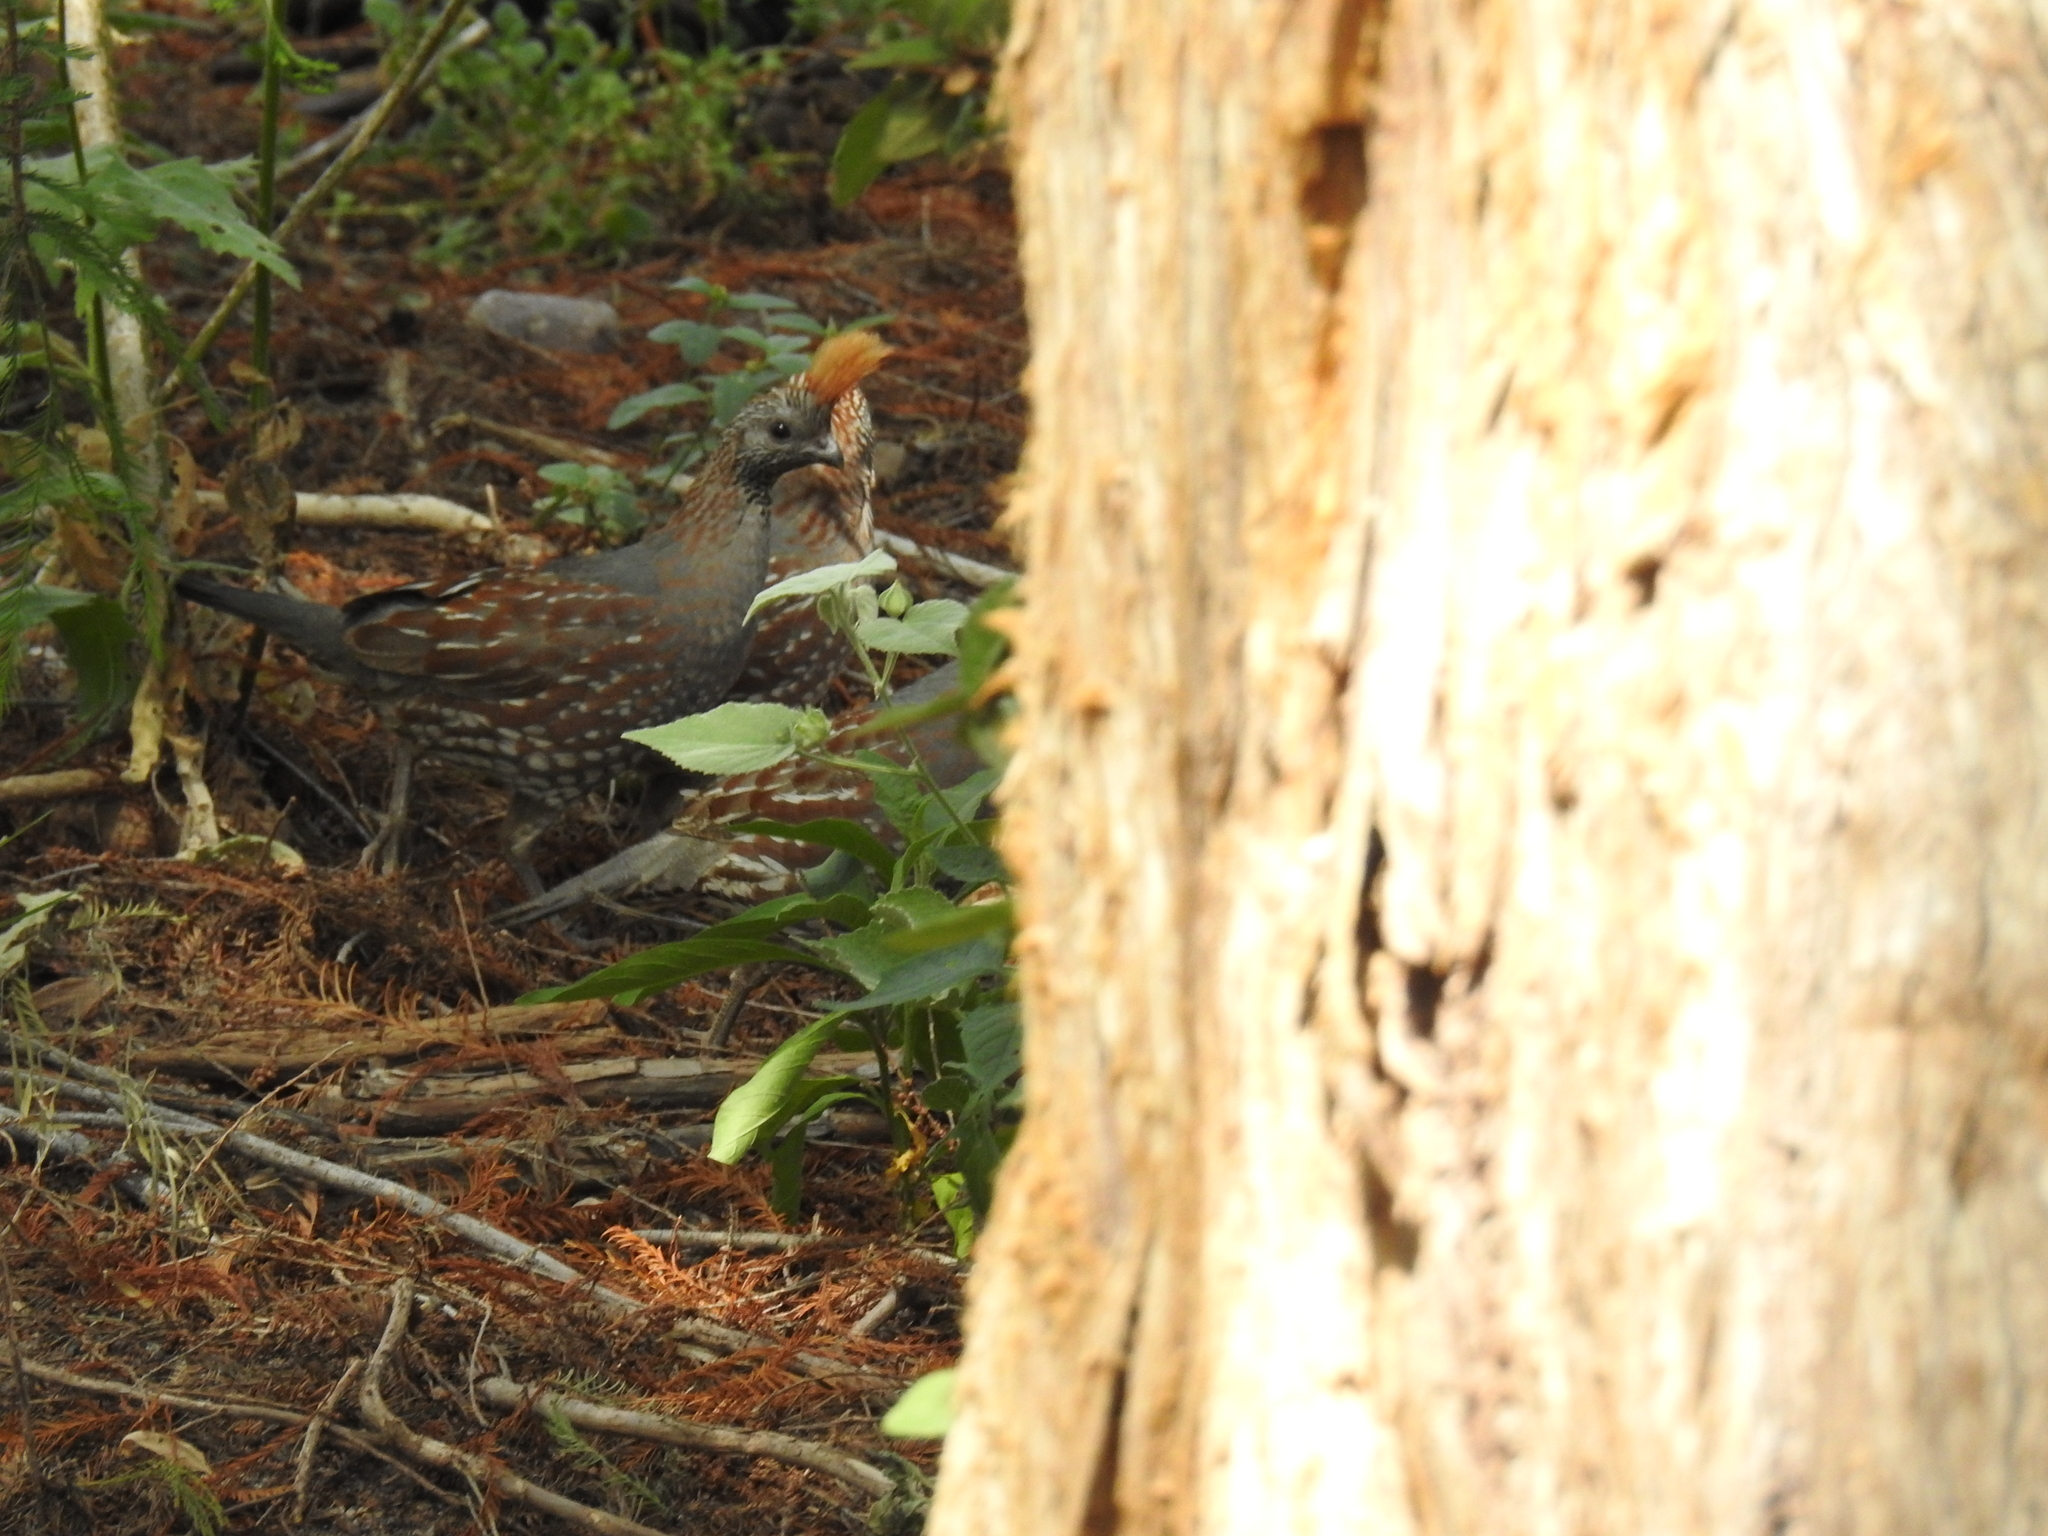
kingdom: Animalia
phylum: Chordata
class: Aves
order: Galliformes
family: Odontophoridae
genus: Callipepla
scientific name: Callipepla douglasii
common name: Elegant quail
